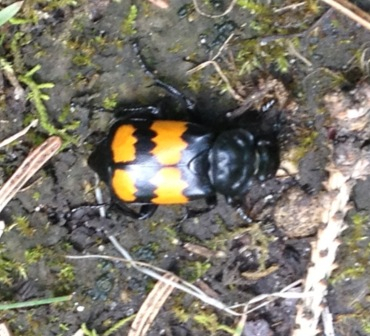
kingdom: Animalia
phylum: Arthropoda
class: Insecta
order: Coleoptera
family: Staphylinidae
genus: Nicrophorus
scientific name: Nicrophorus defodiens
